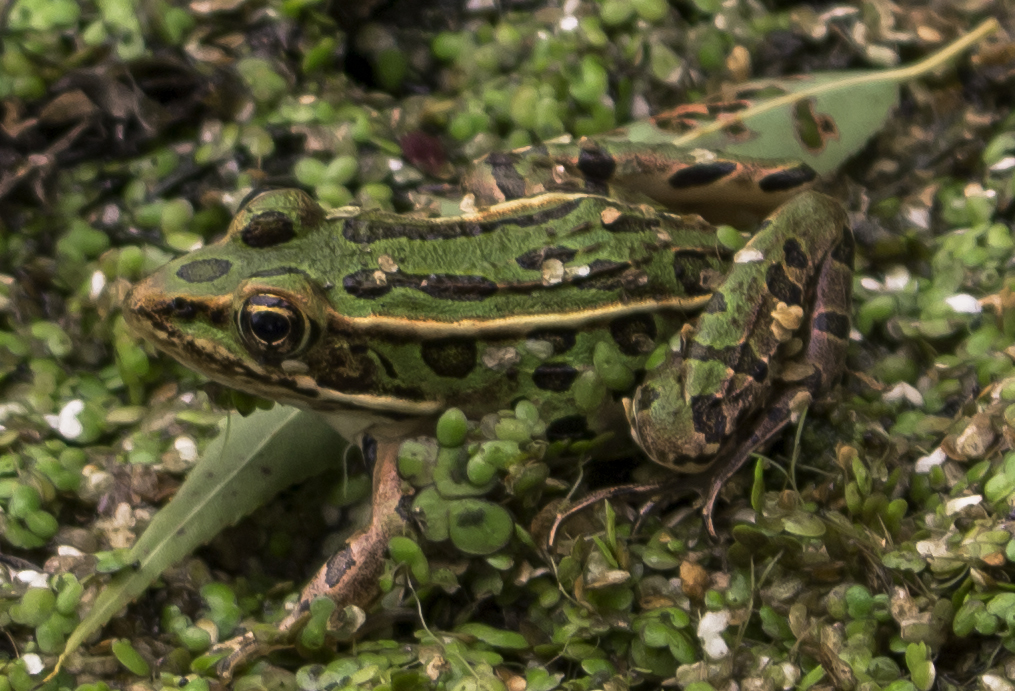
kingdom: Animalia
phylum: Chordata
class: Amphibia
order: Anura
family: Ranidae
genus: Lithobates
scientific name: Lithobates pipiens
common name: Northern leopard frog
